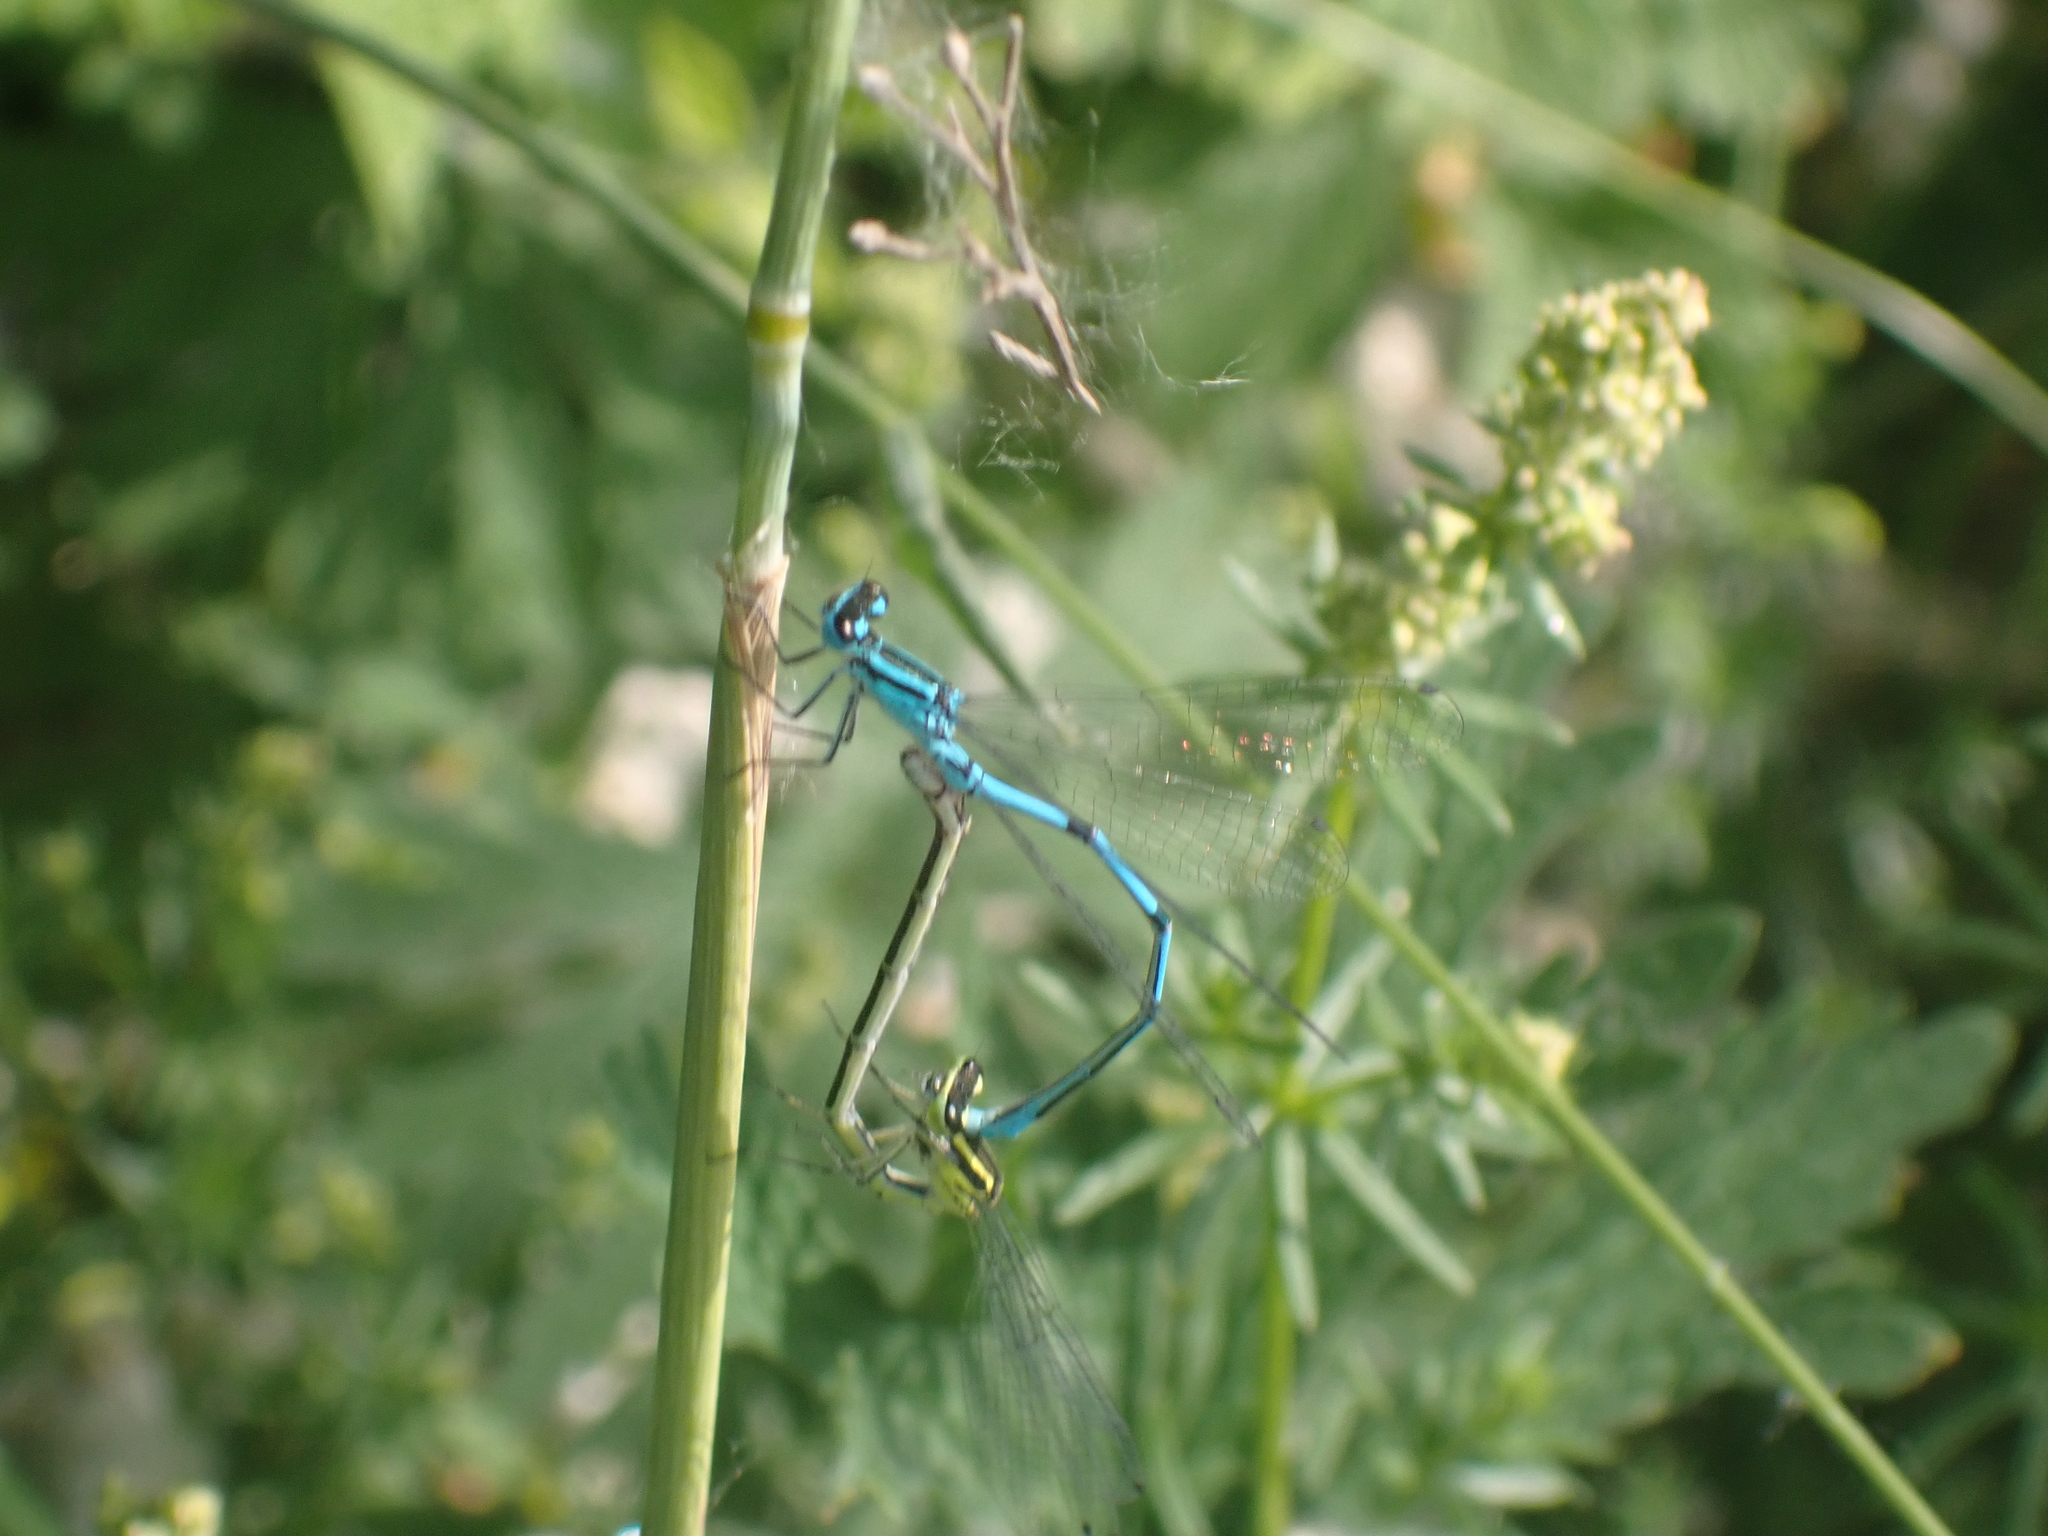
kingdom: Animalia
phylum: Arthropoda
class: Insecta
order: Odonata
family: Coenagrionidae
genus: Coenagrion
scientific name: Coenagrion puella
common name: Azure damselfly
